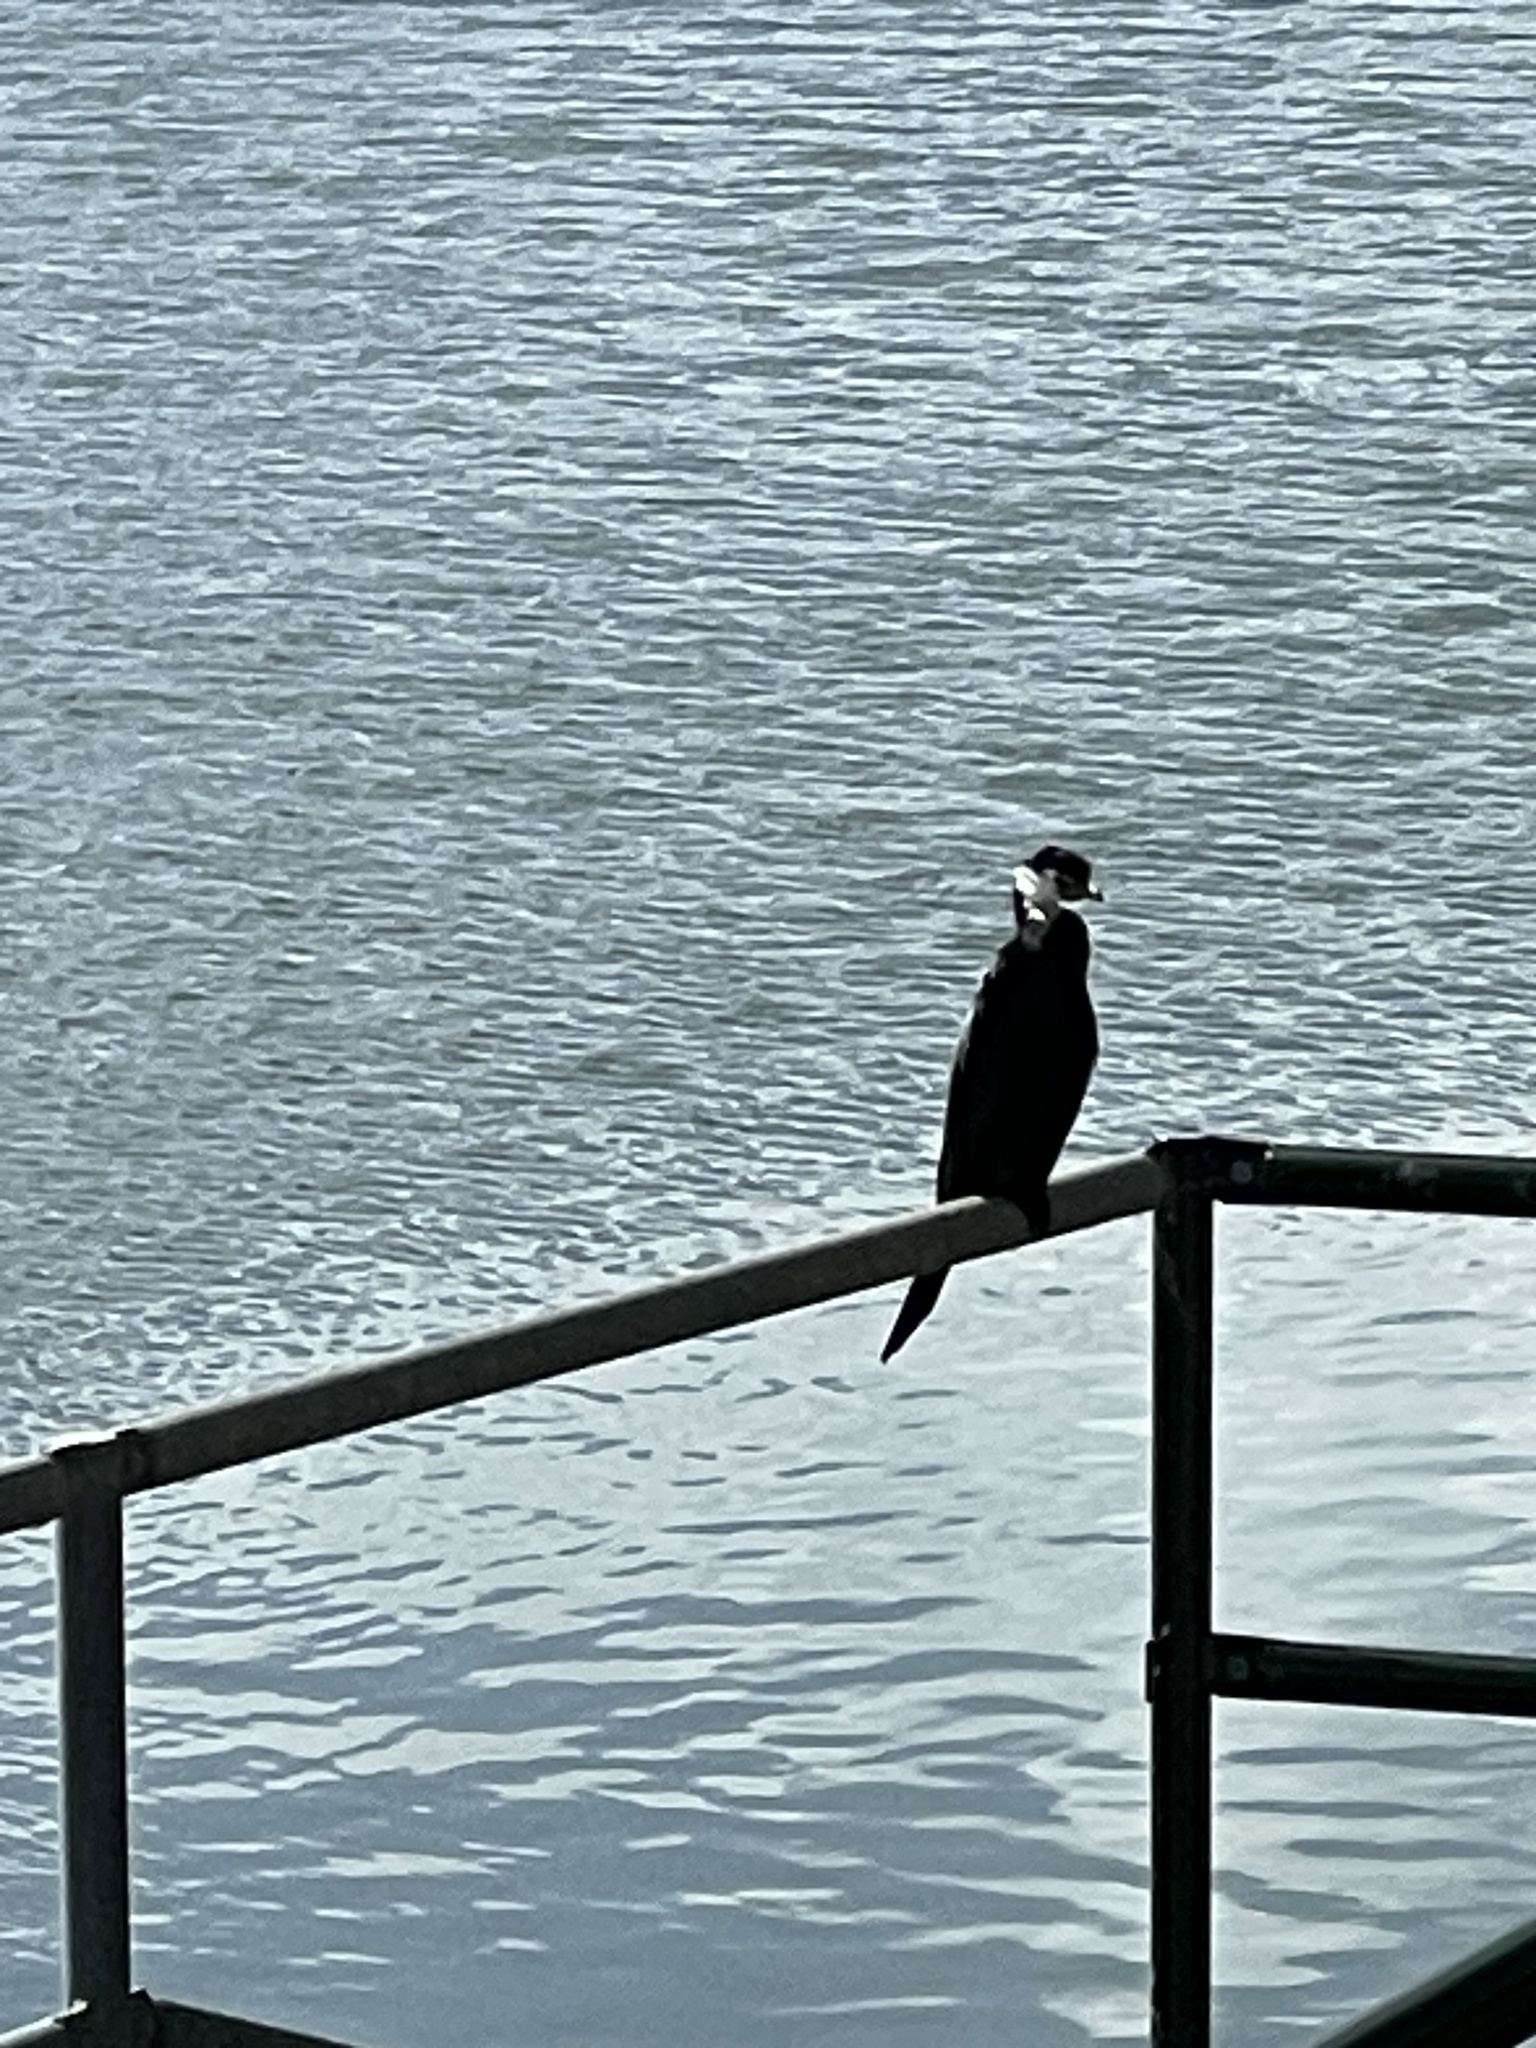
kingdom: Animalia
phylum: Chordata
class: Aves
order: Suliformes
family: Phalacrocoracidae
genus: Microcarbo
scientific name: Microcarbo melanoleucos
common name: Little pied cormorant
